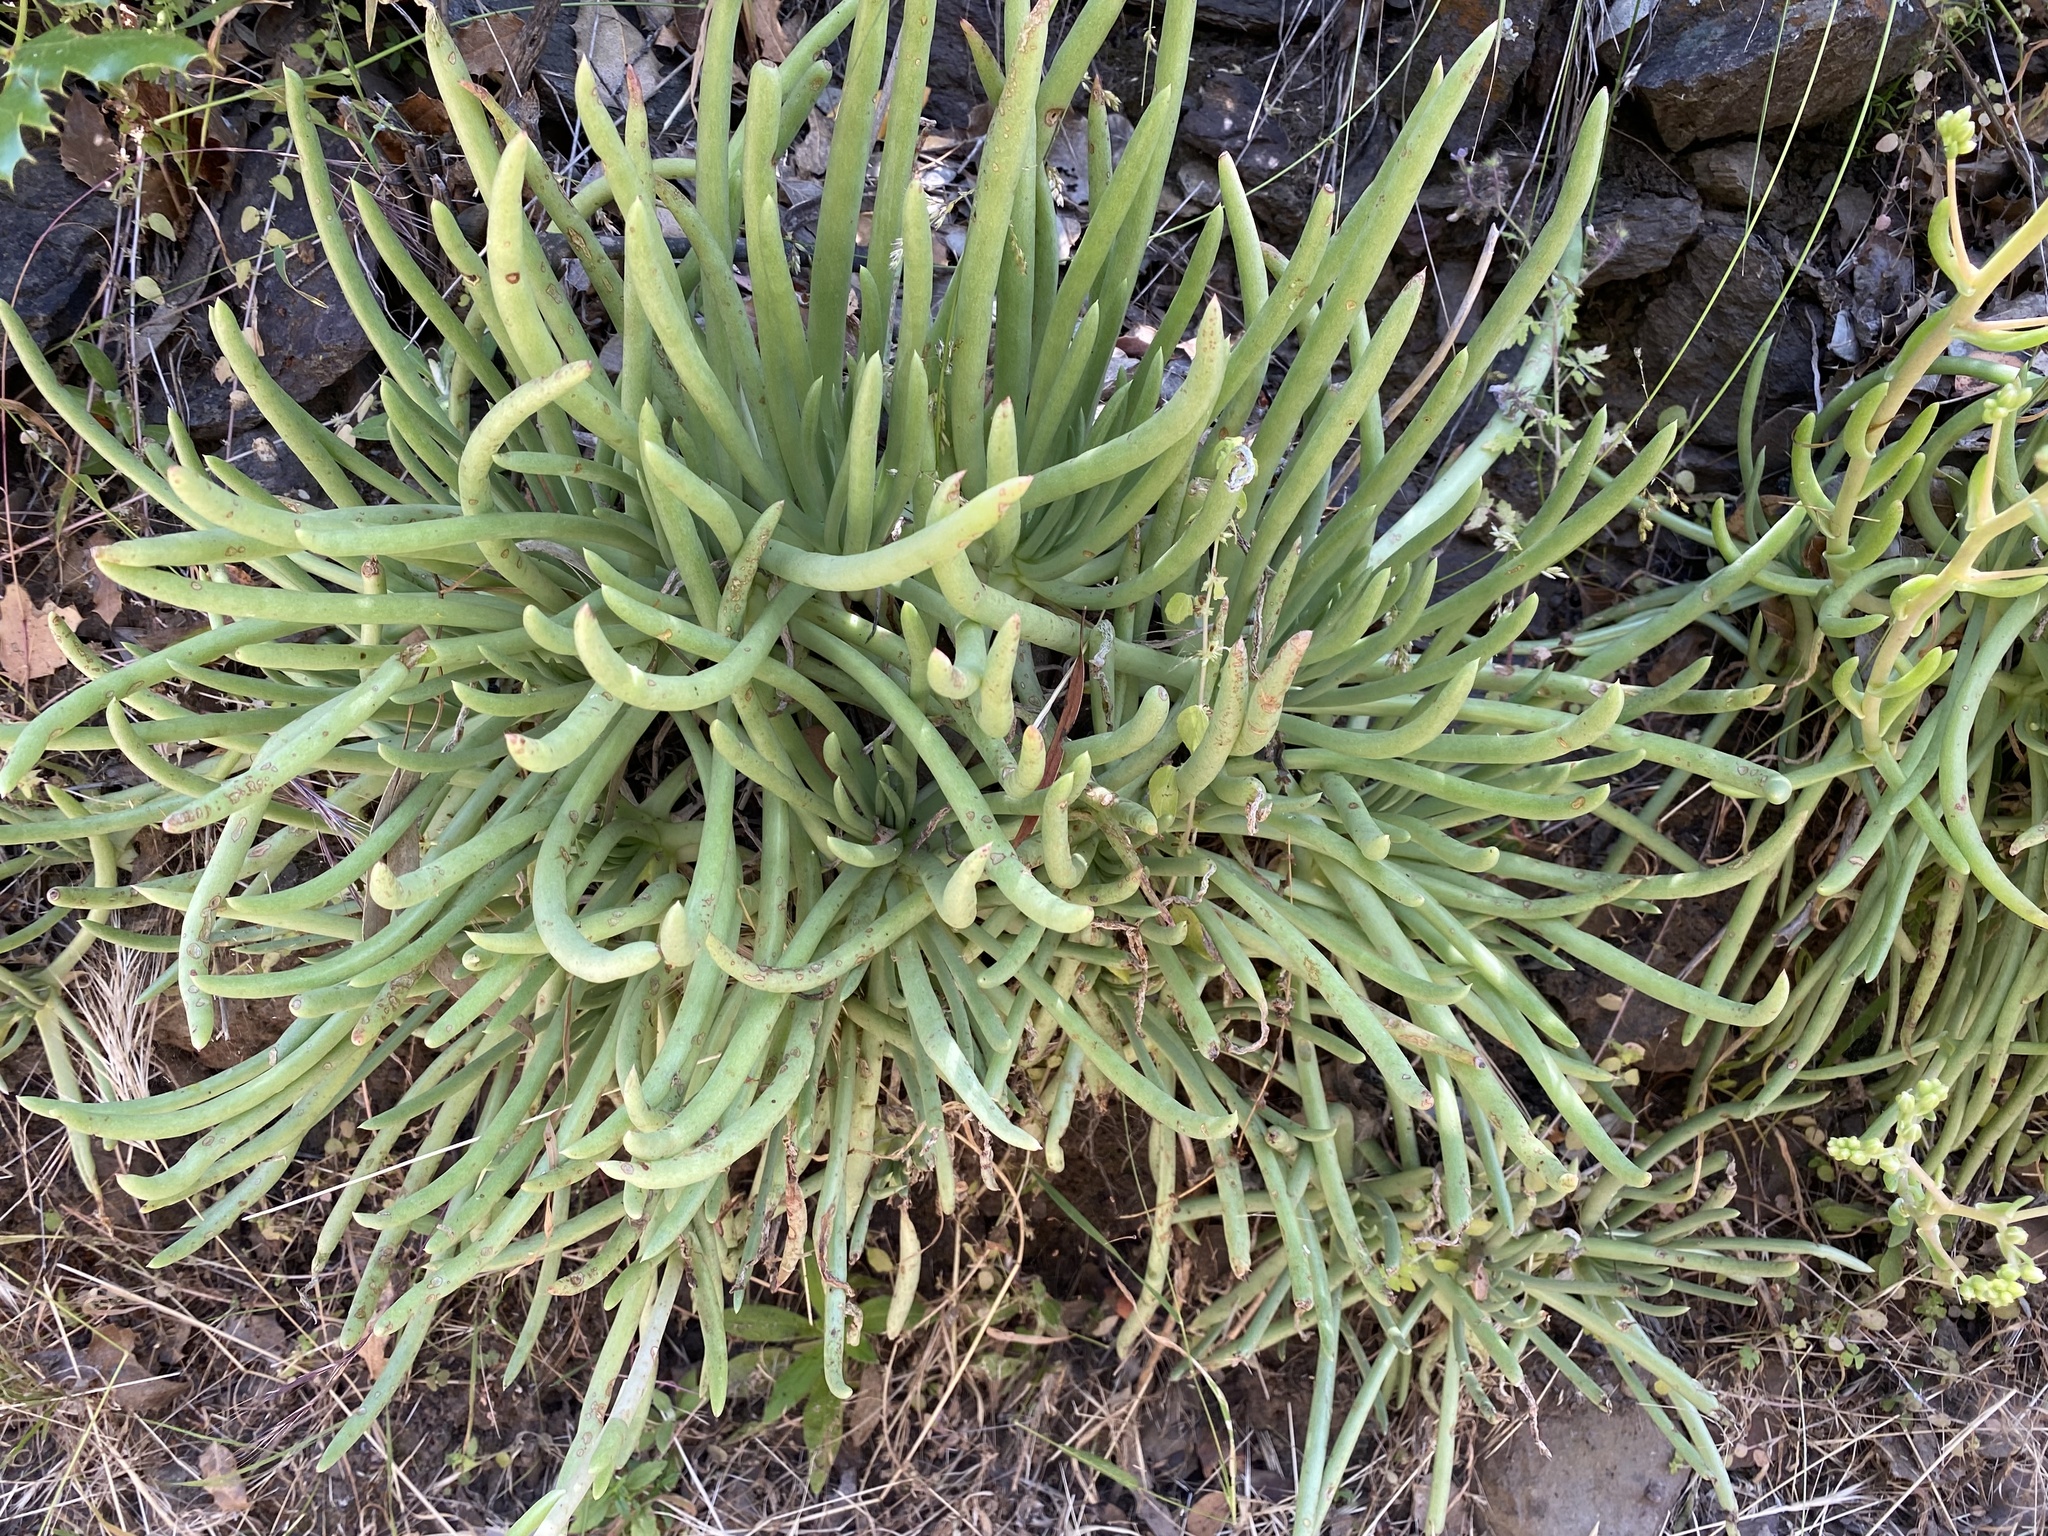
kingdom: Plantae
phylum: Tracheophyta
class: Magnoliopsida
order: Saxifragales
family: Crassulaceae
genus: Dudleya
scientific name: Dudleya edulis
